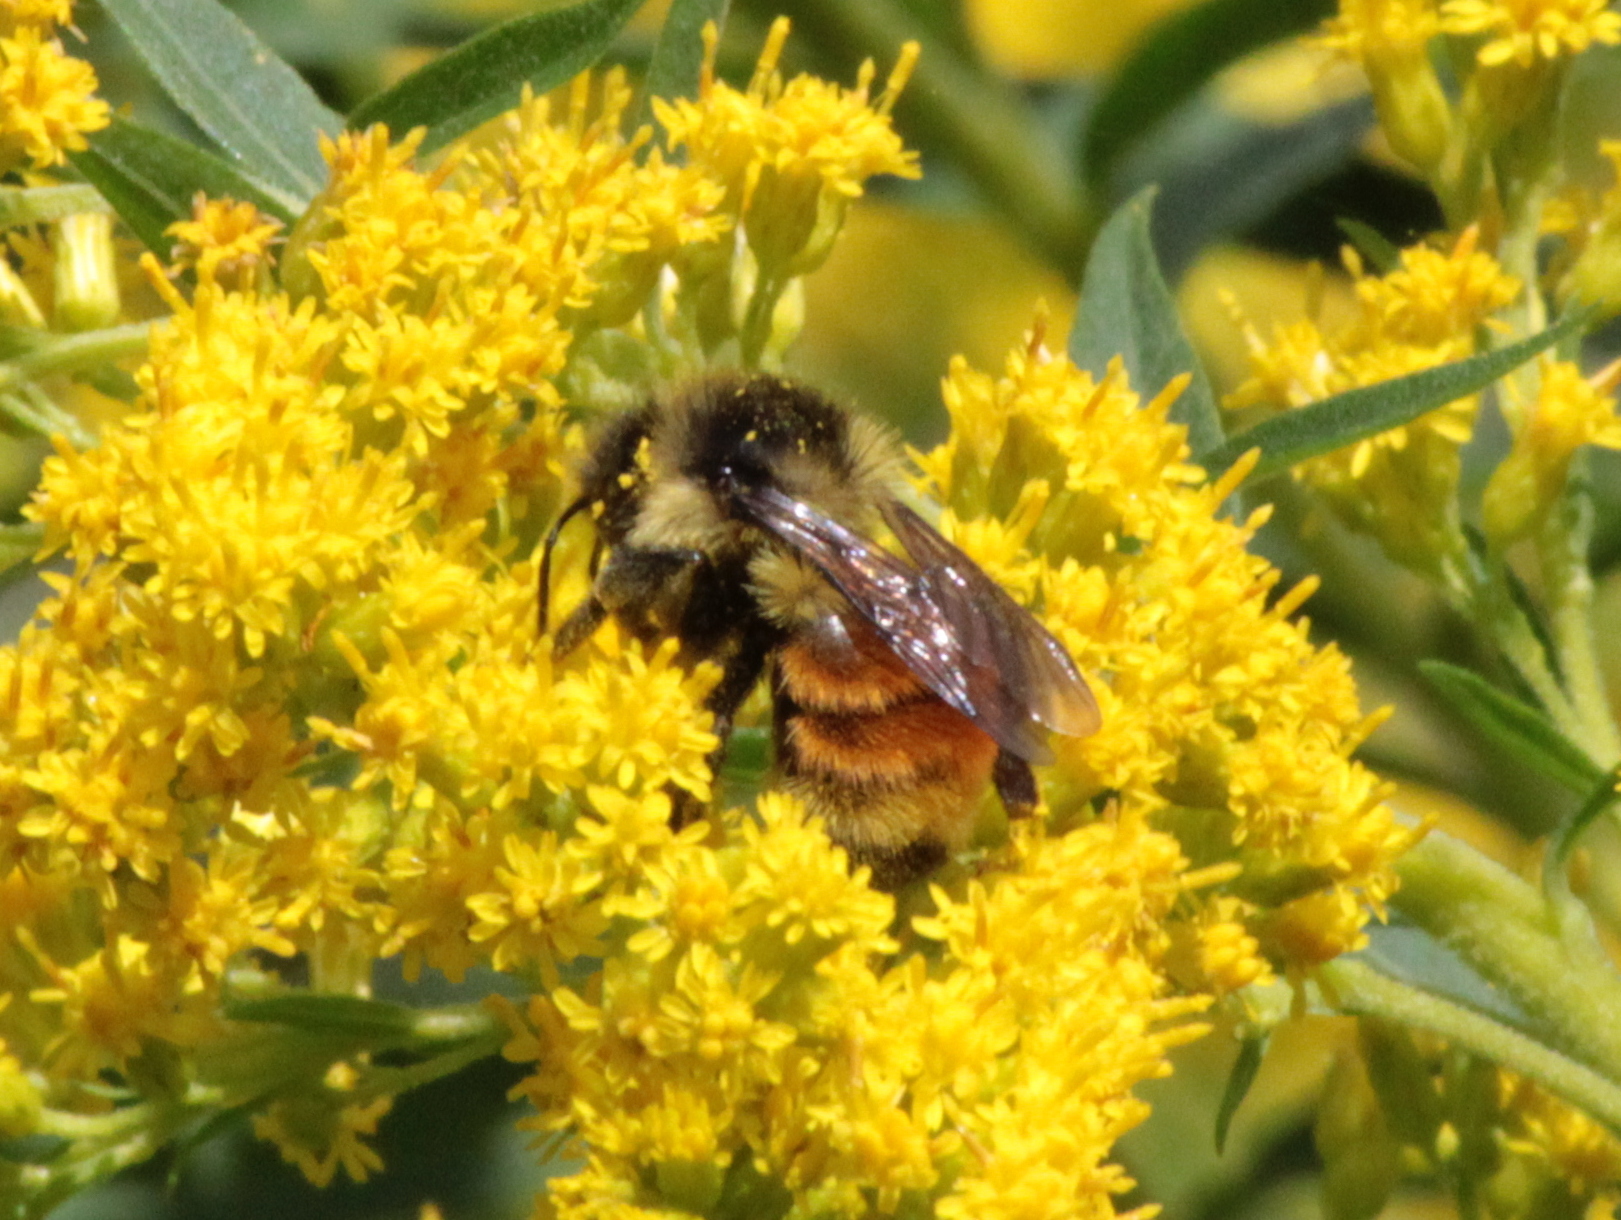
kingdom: Animalia
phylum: Arthropoda
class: Insecta
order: Hymenoptera
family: Apidae
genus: Bombus
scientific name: Bombus ternarius
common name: Tri-colored bumble bee
